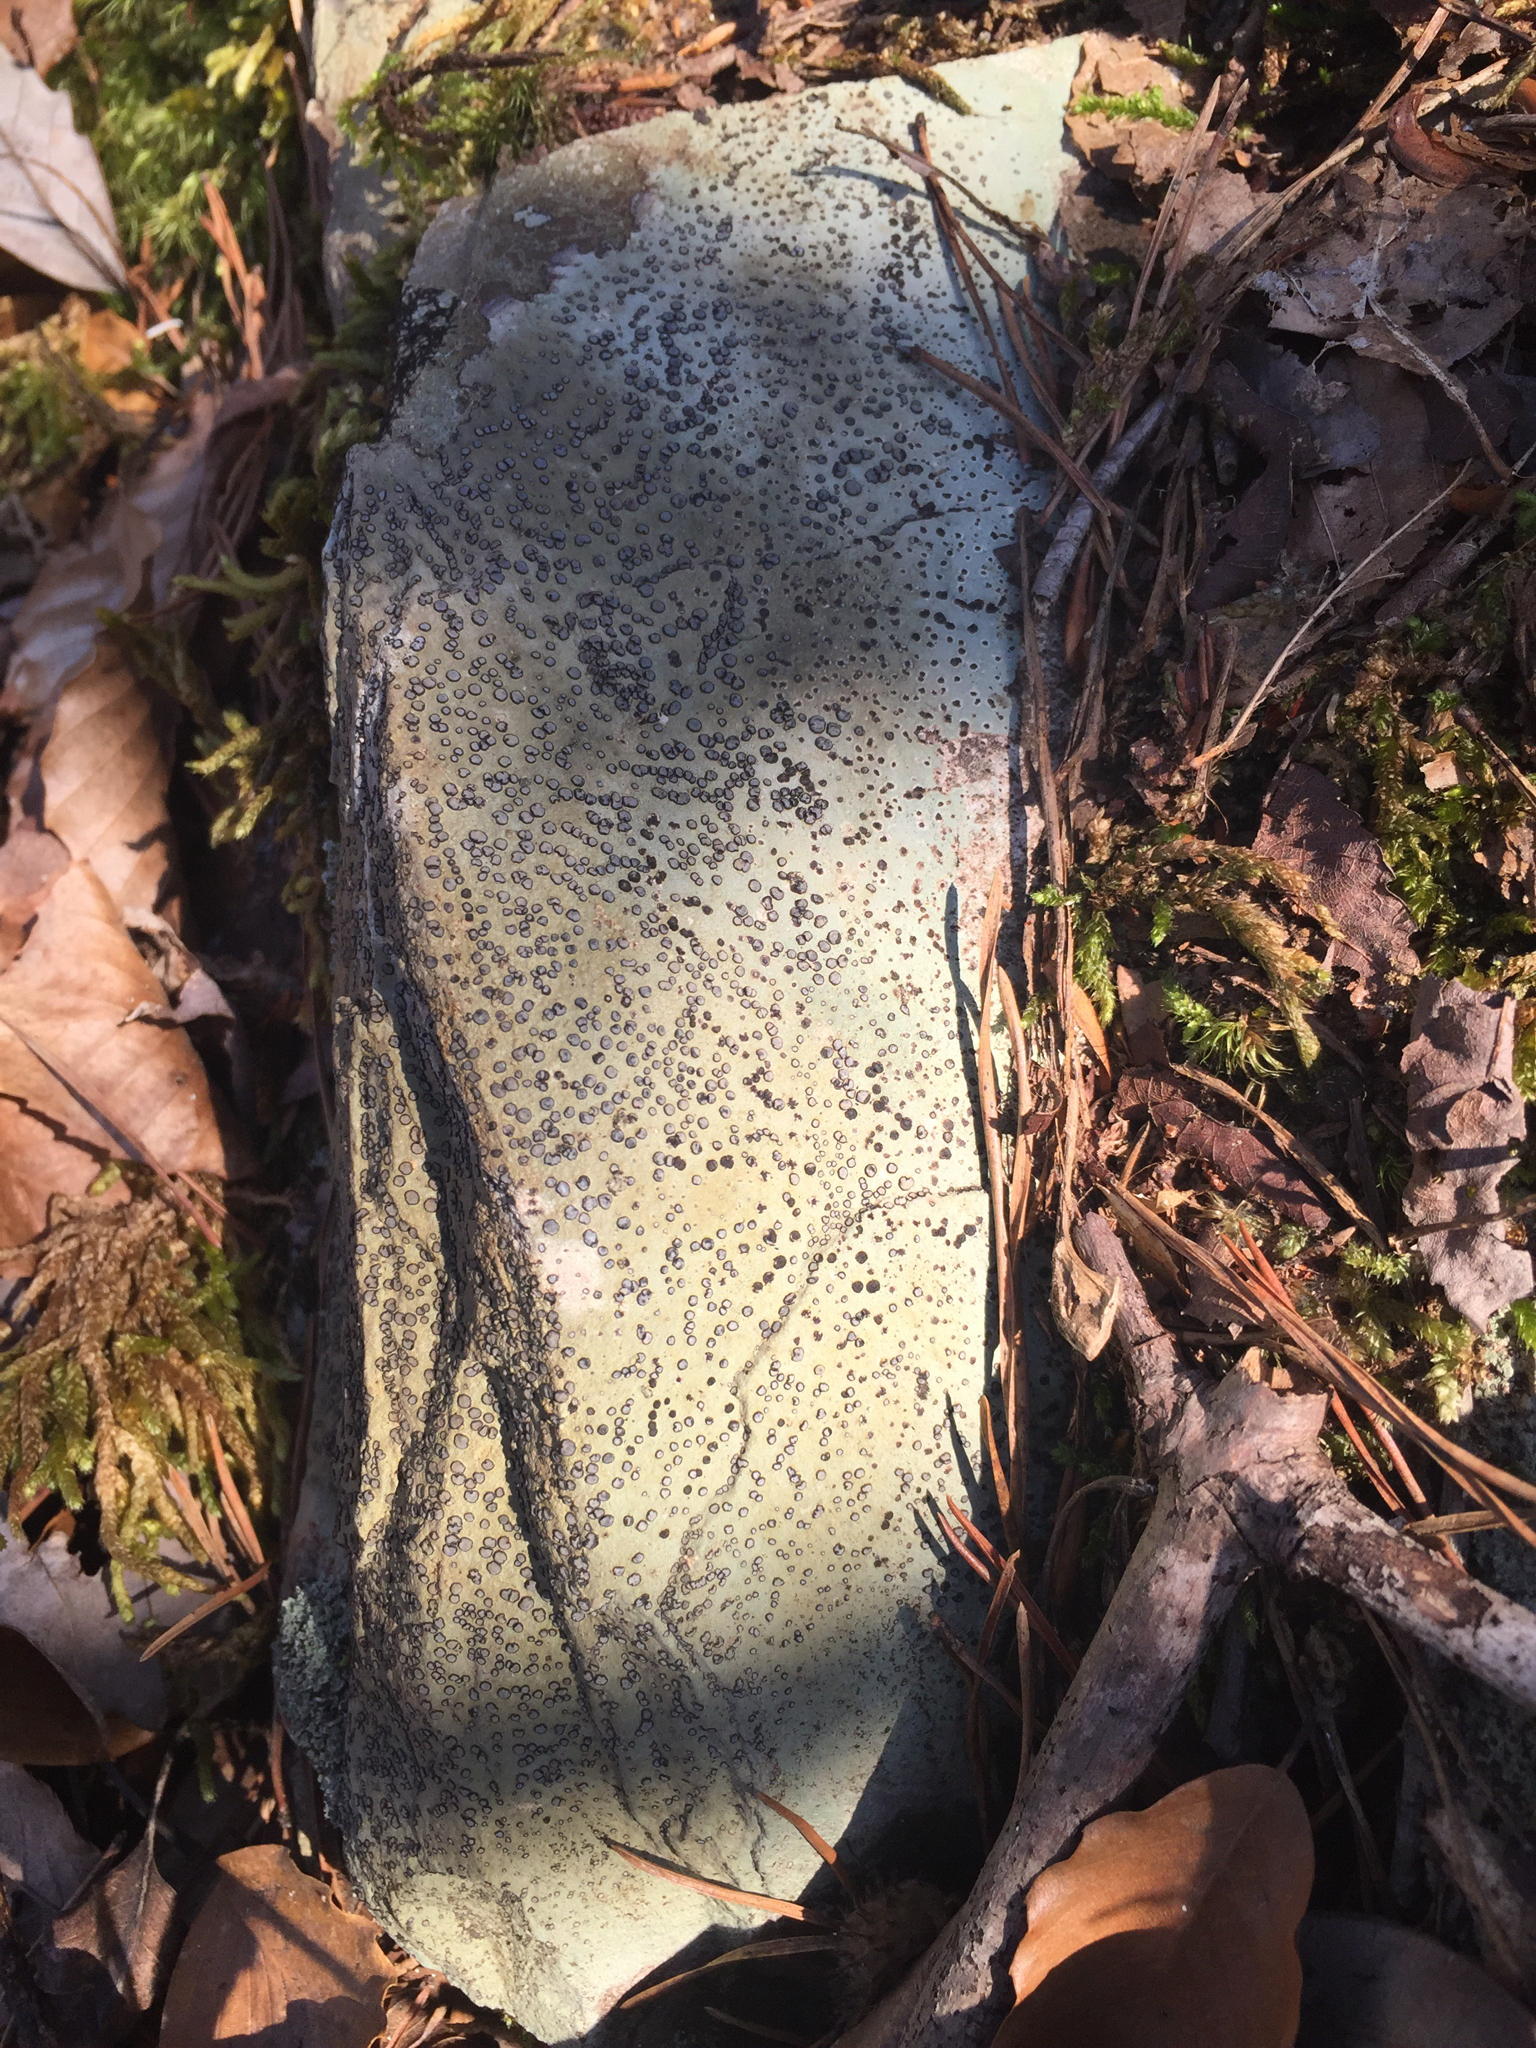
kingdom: Fungi
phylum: Ascomycota
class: Lecanoromycetes
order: Lecideales
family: Lecideaceae
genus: Porpidia
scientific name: Porpidia albocaerulescens
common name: Smokey-eyed boulder lichen
